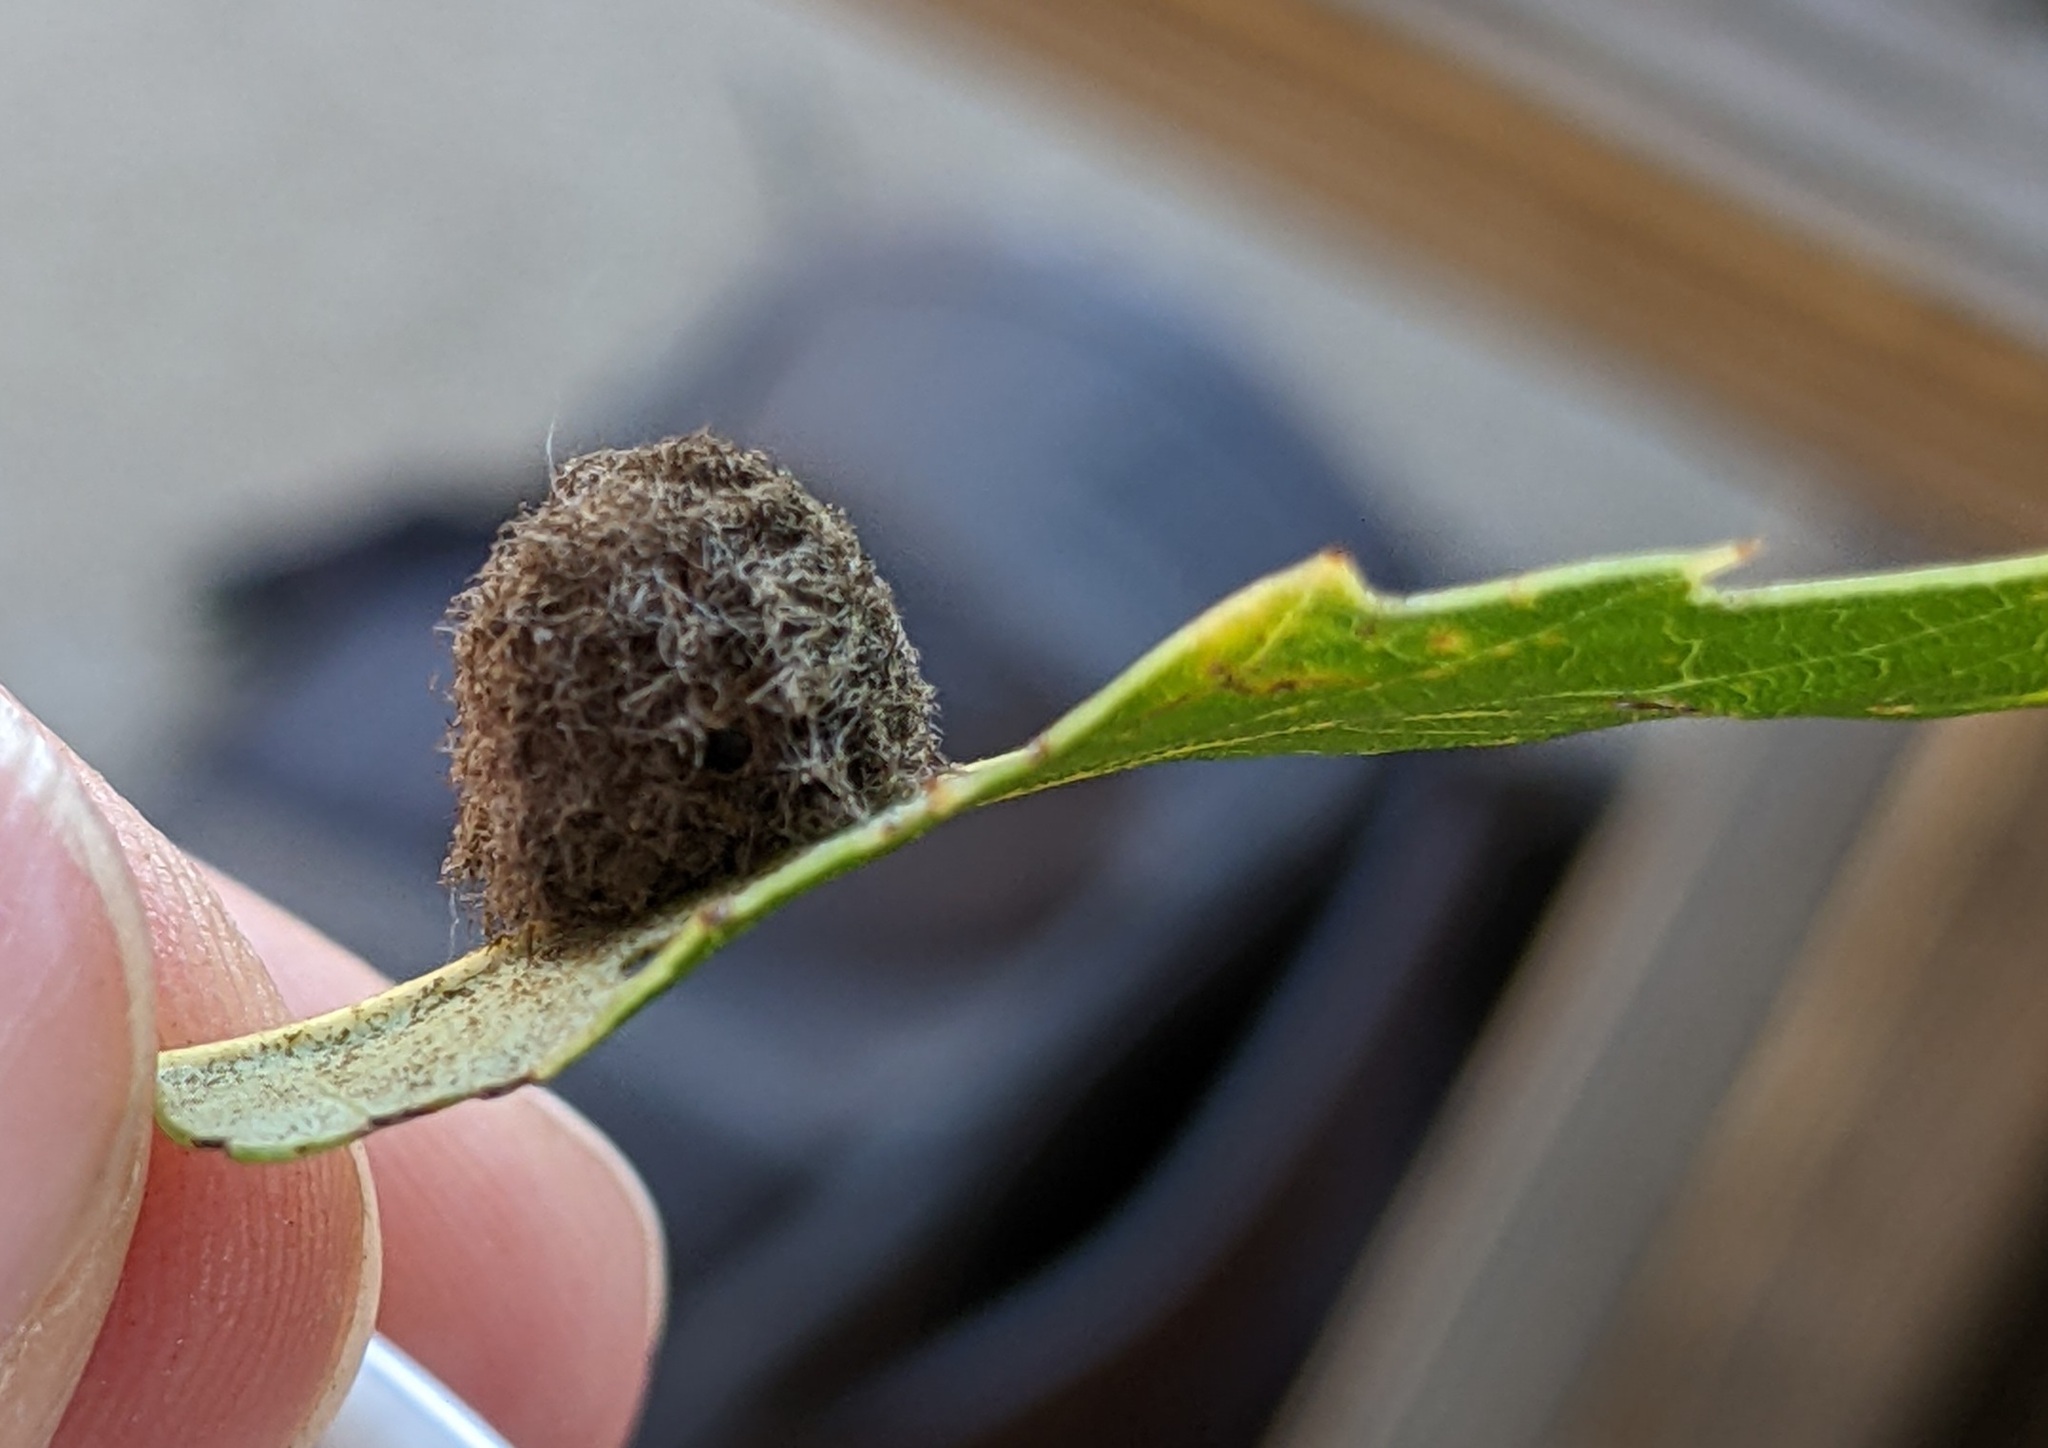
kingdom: Animalia
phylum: Arthropoda
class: Insecta
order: Hymenoptera
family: Cynipidae
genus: Disholandricus
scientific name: Disholandricus
